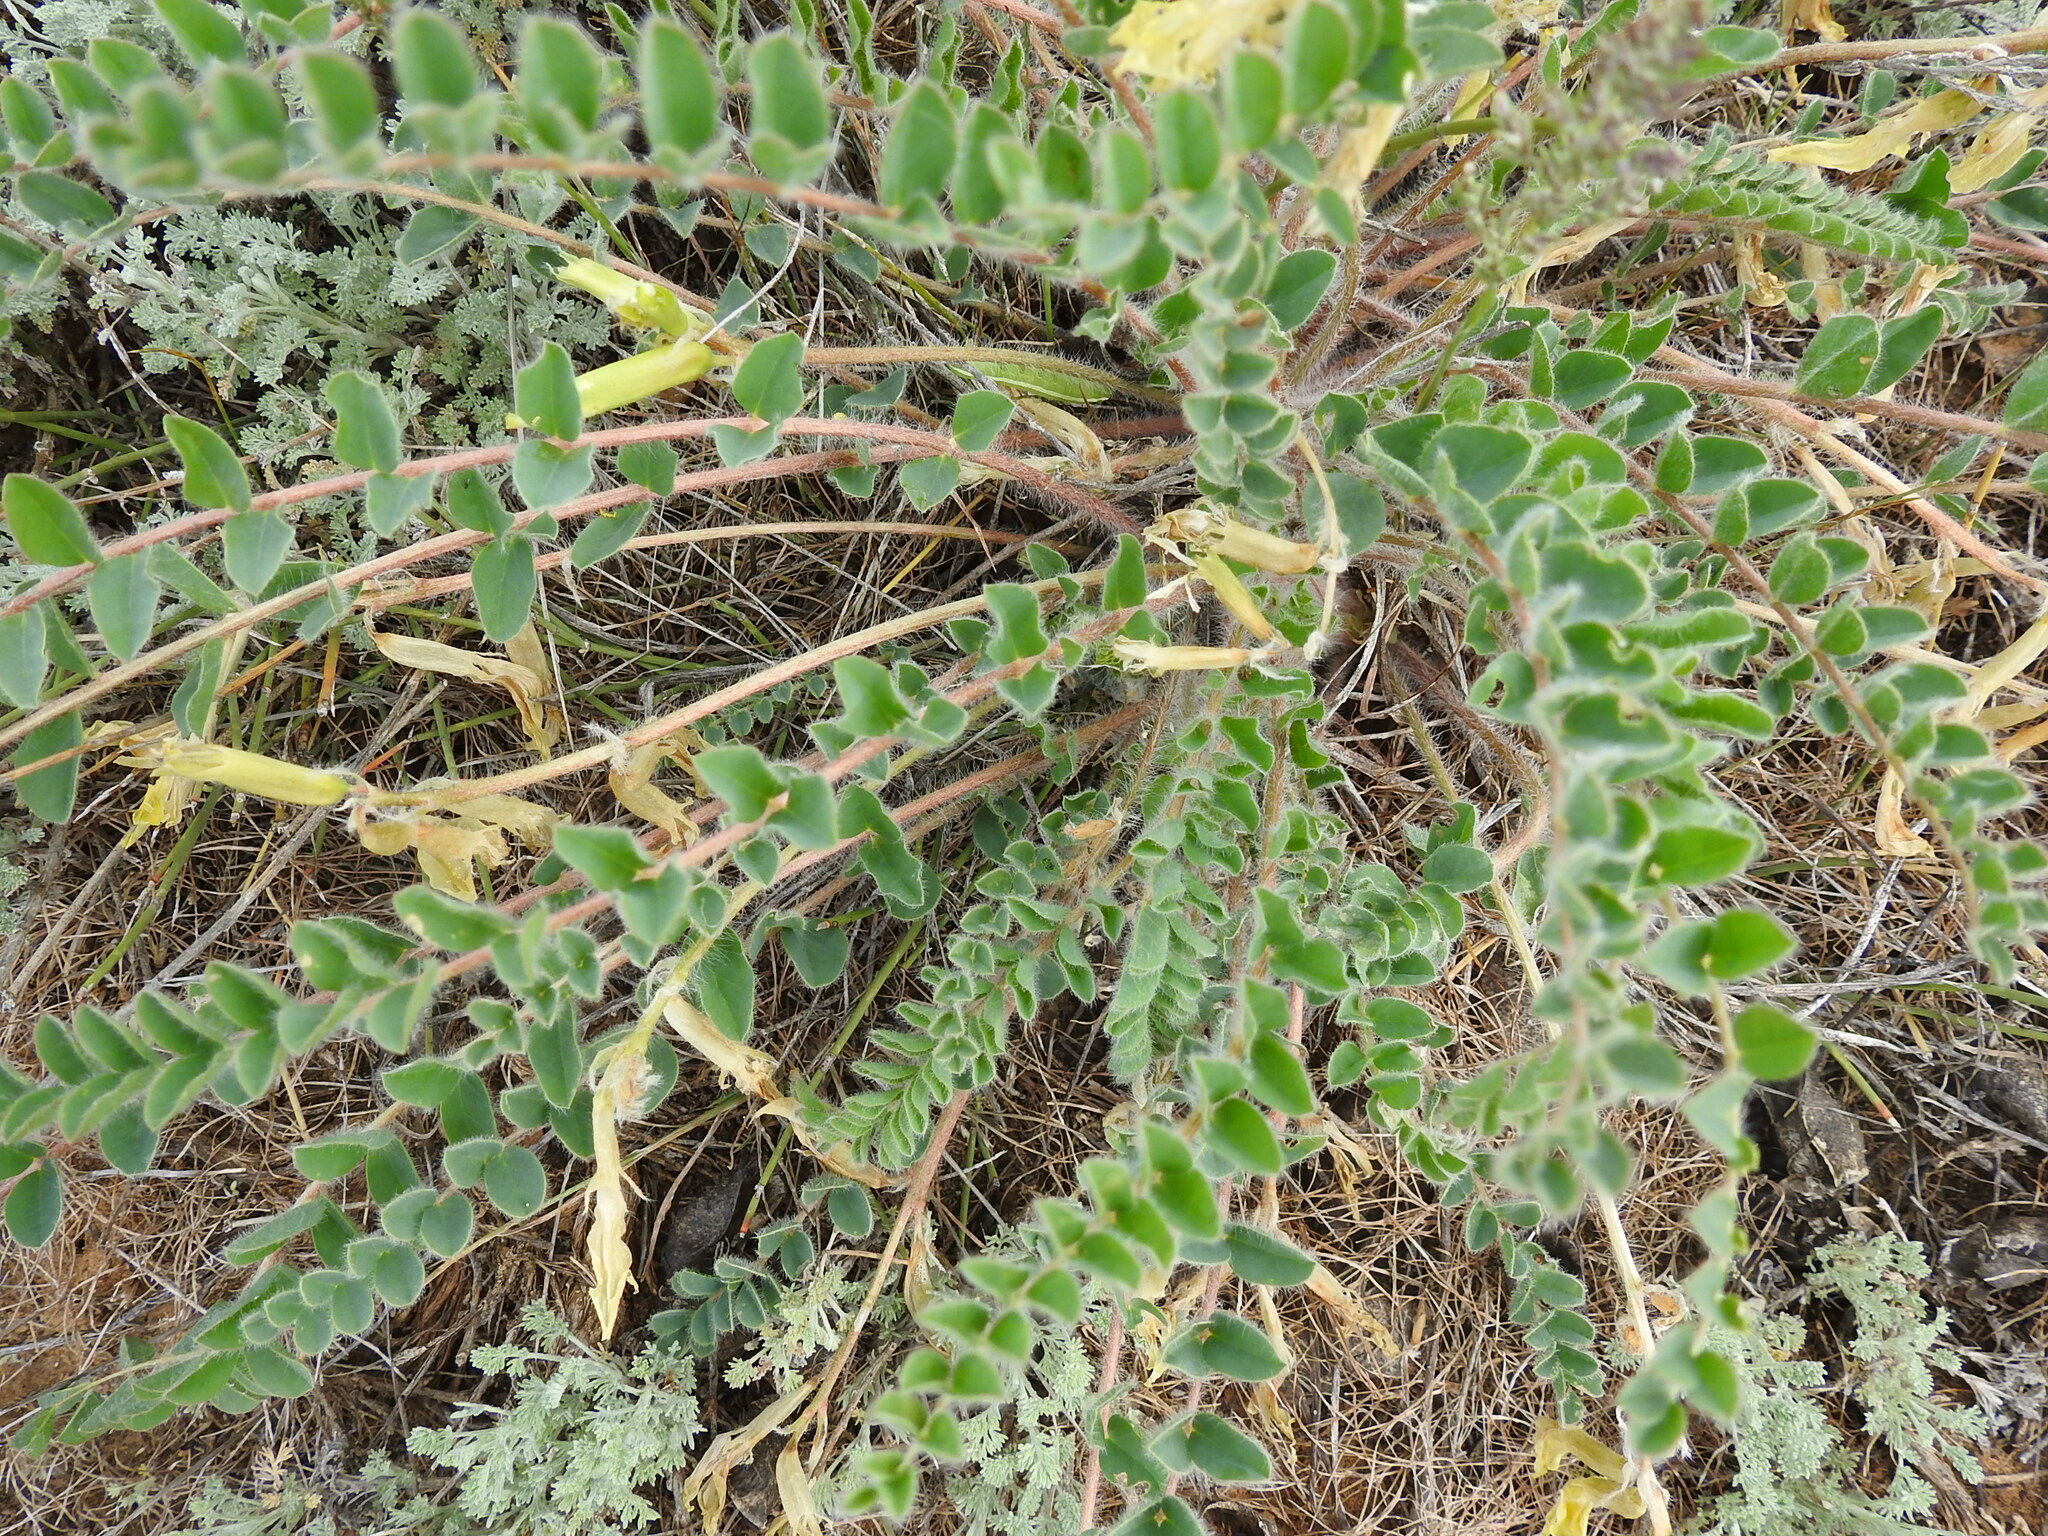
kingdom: Plantae
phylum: Tracheophyta
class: Magnoliopsida
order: Fabales
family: Fabaceae
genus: Astragalus
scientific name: Astragalus longipetalus
